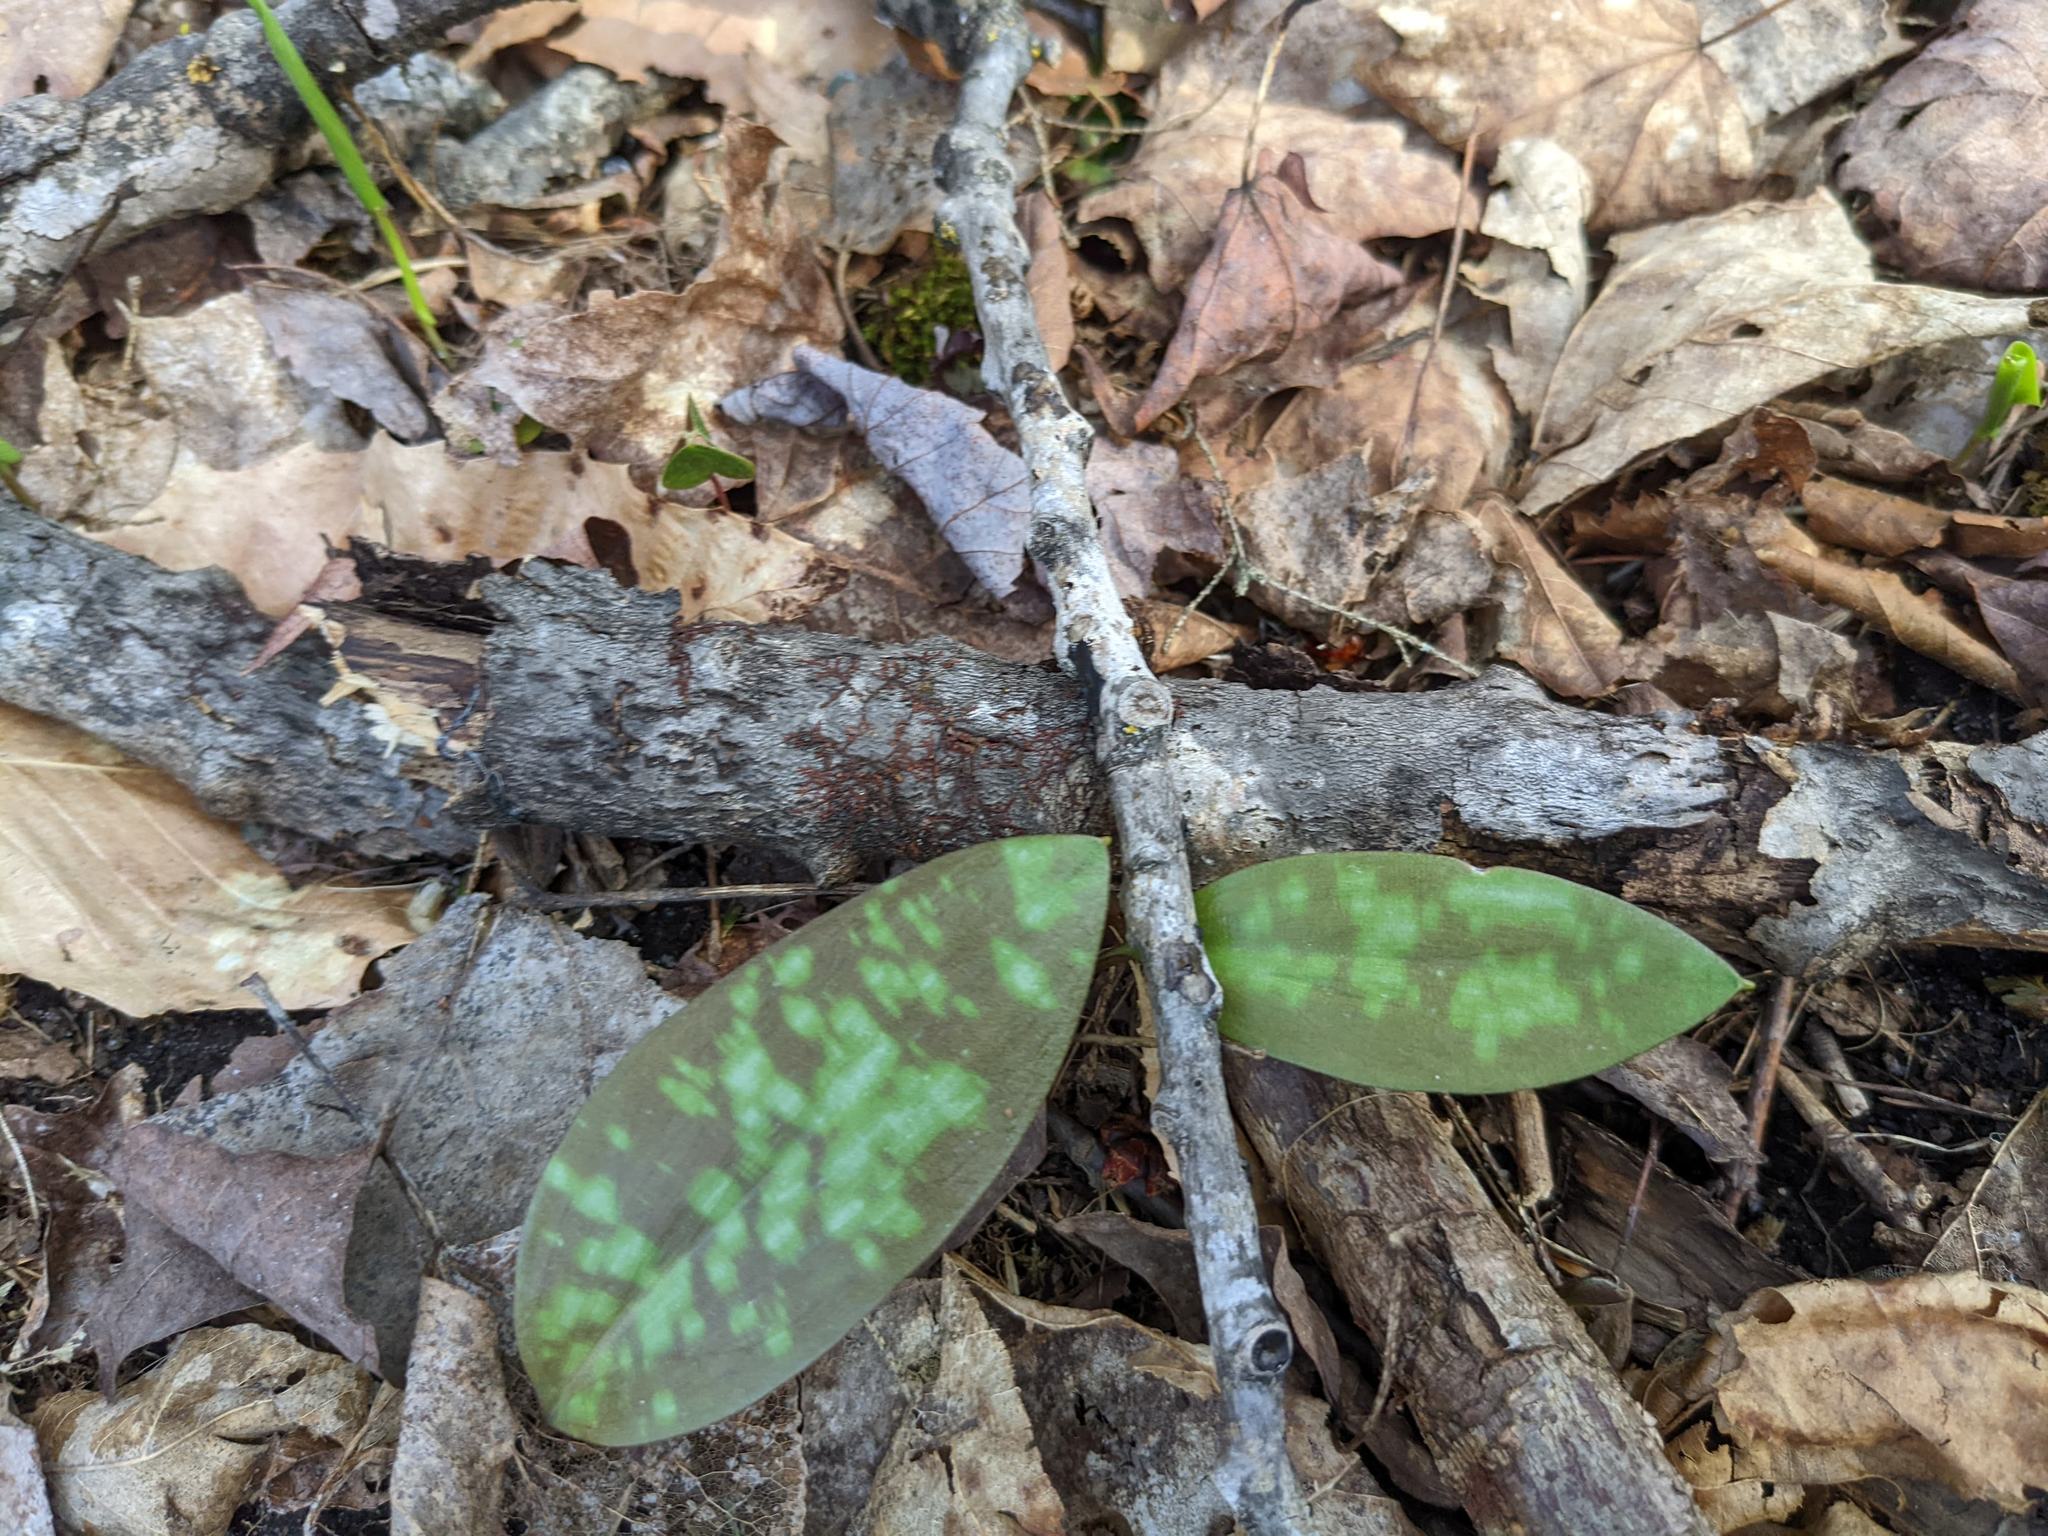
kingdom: Plantae
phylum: Tracheophyta
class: Liliopsida
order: Liliales
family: Liliaceae
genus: Erythronium
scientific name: Erythronium americanum
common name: Yellow adder's-tongue
